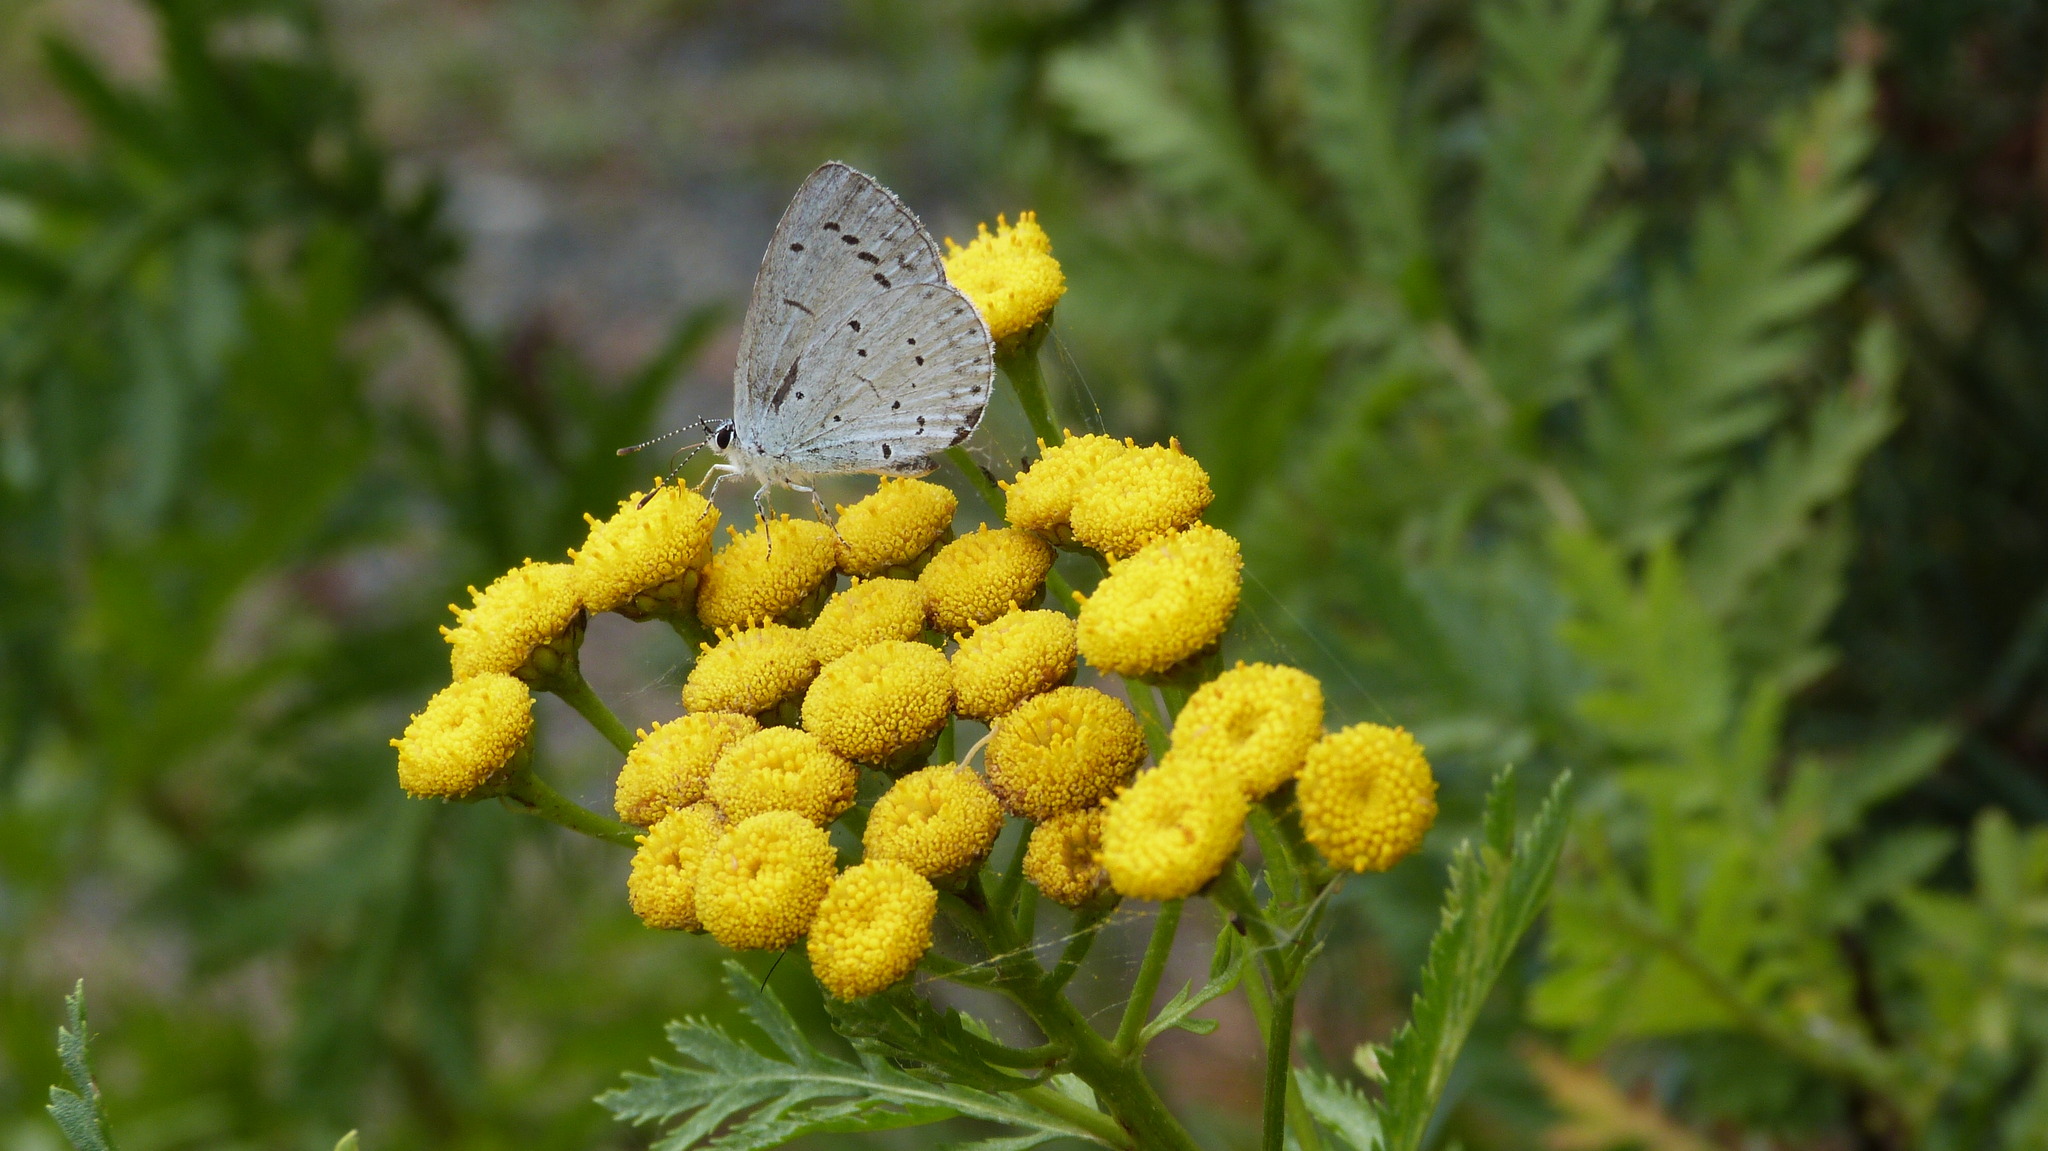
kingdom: Animalia
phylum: Arthropoda
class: Insecta
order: Lepidoptera
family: Lycaenidae
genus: Celastrina
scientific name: Celastrina argiolus
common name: Holly blue
